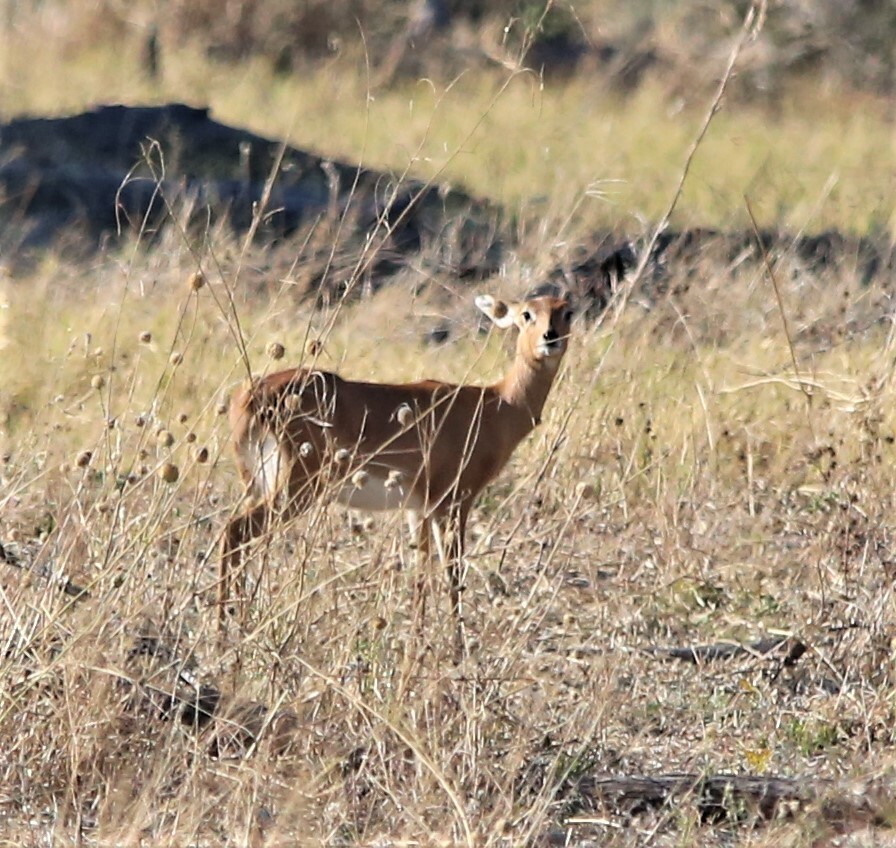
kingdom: Animalia
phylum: Chordata
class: Mammalia
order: Artiodactyla
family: Bovidae
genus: Raphicerus
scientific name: Raphicerus campestris
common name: Steenbok
